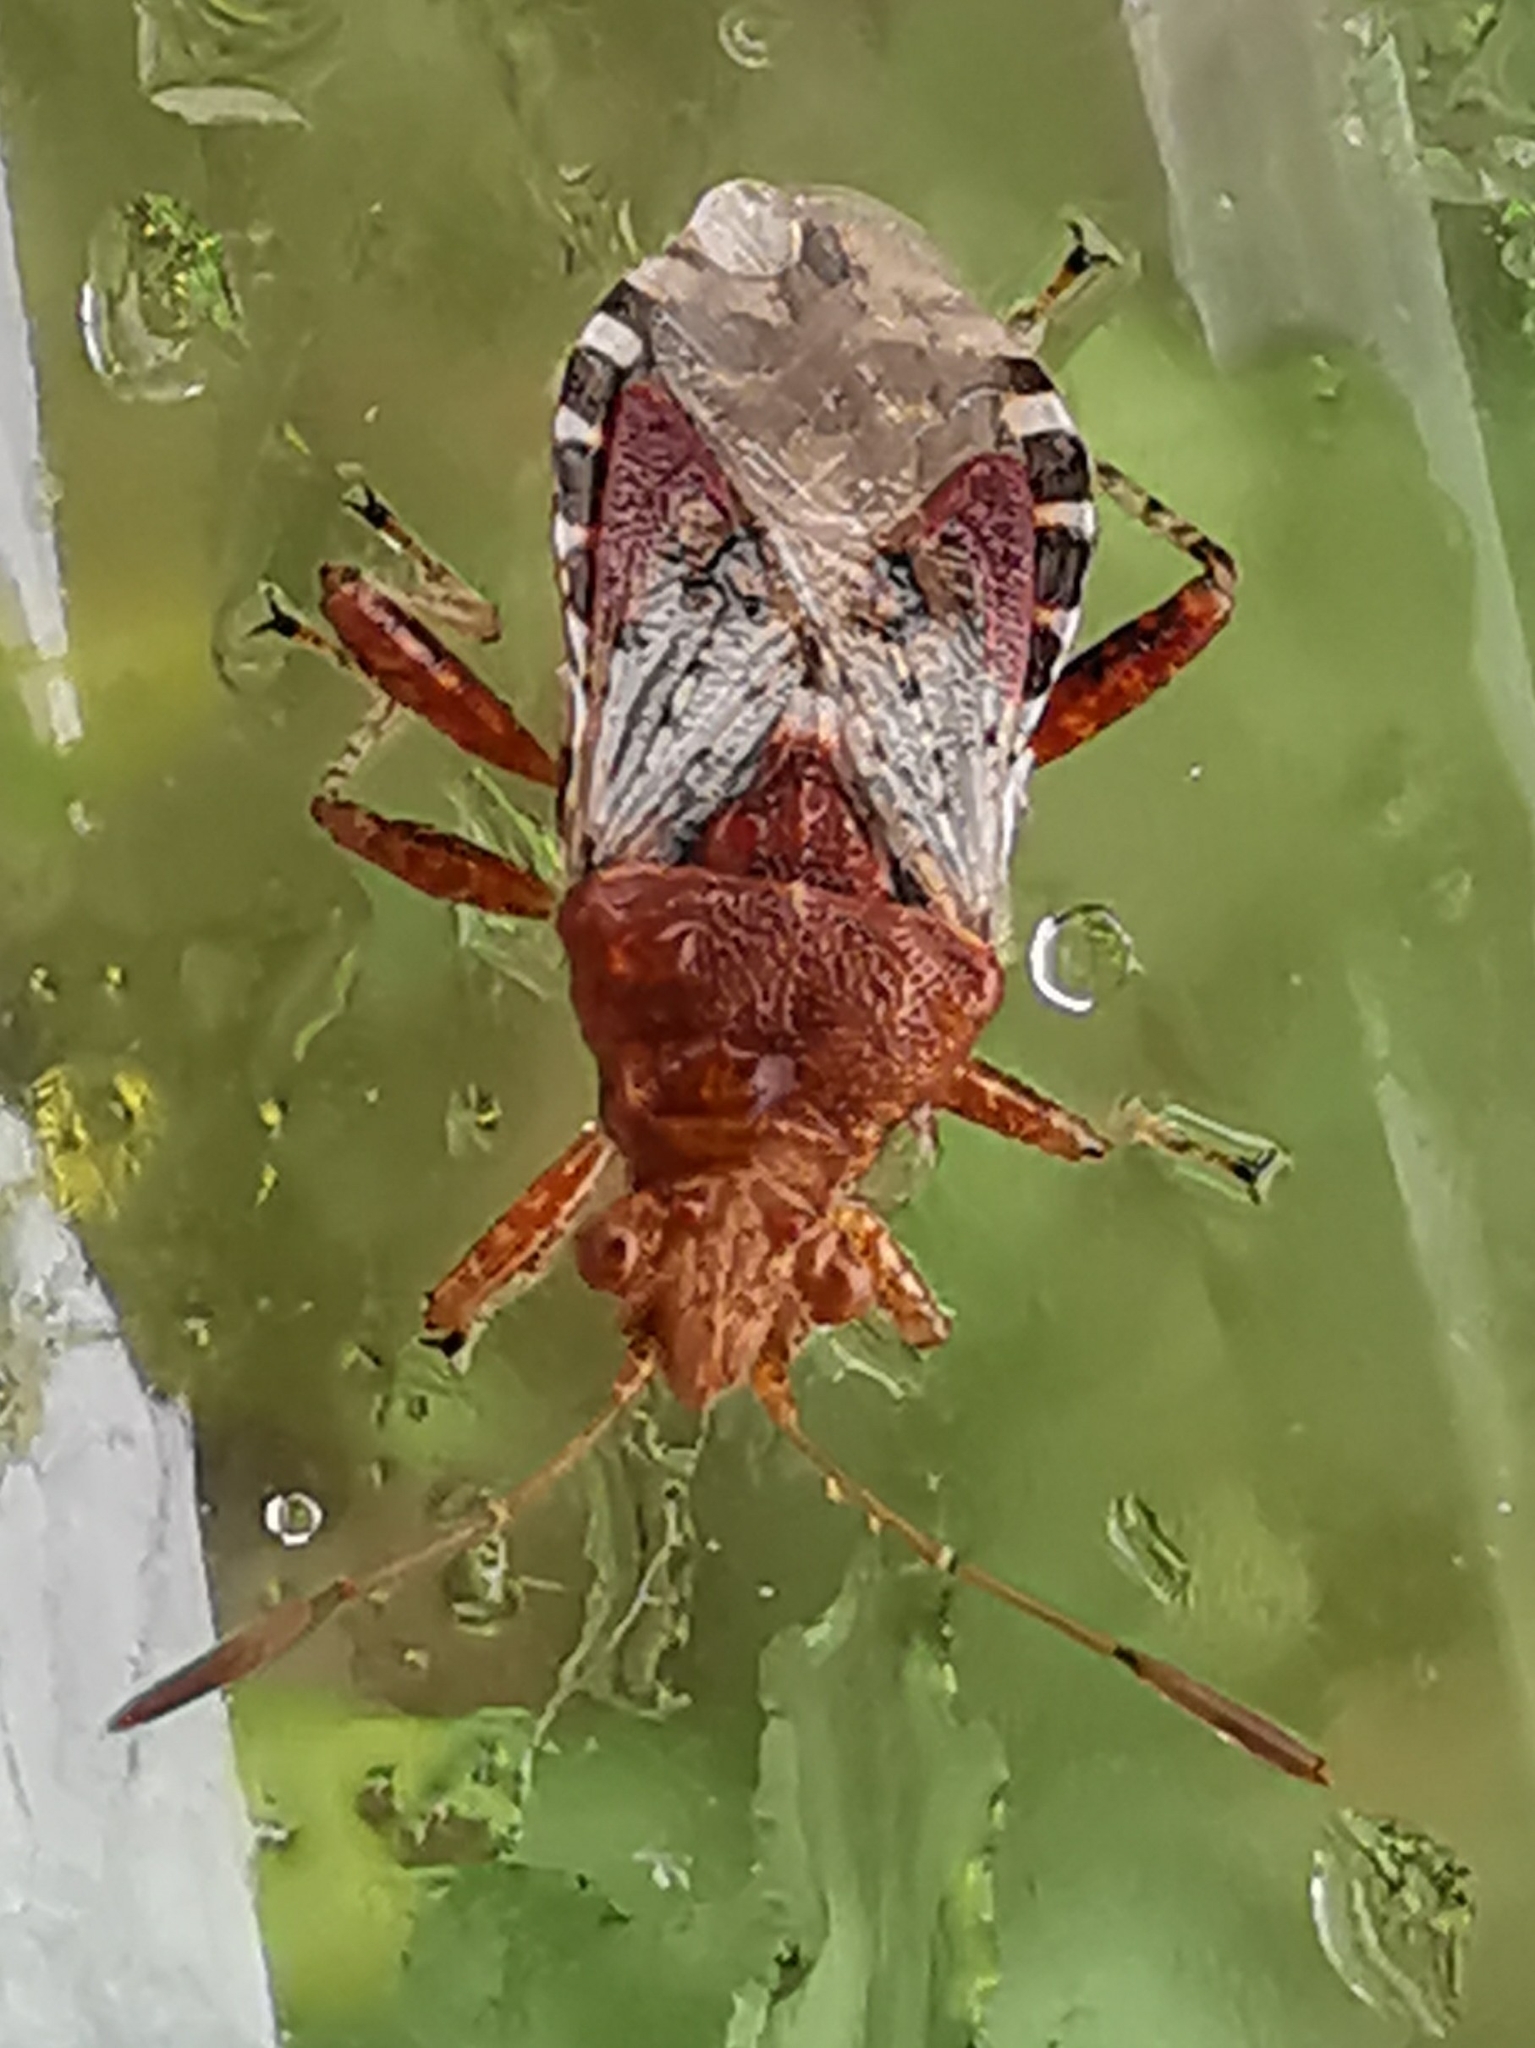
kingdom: Animalia
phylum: Arthropoda
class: Insecta
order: Hemiptera
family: Rhopalidae
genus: Rhopalus
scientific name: Rhopalus subrufus
